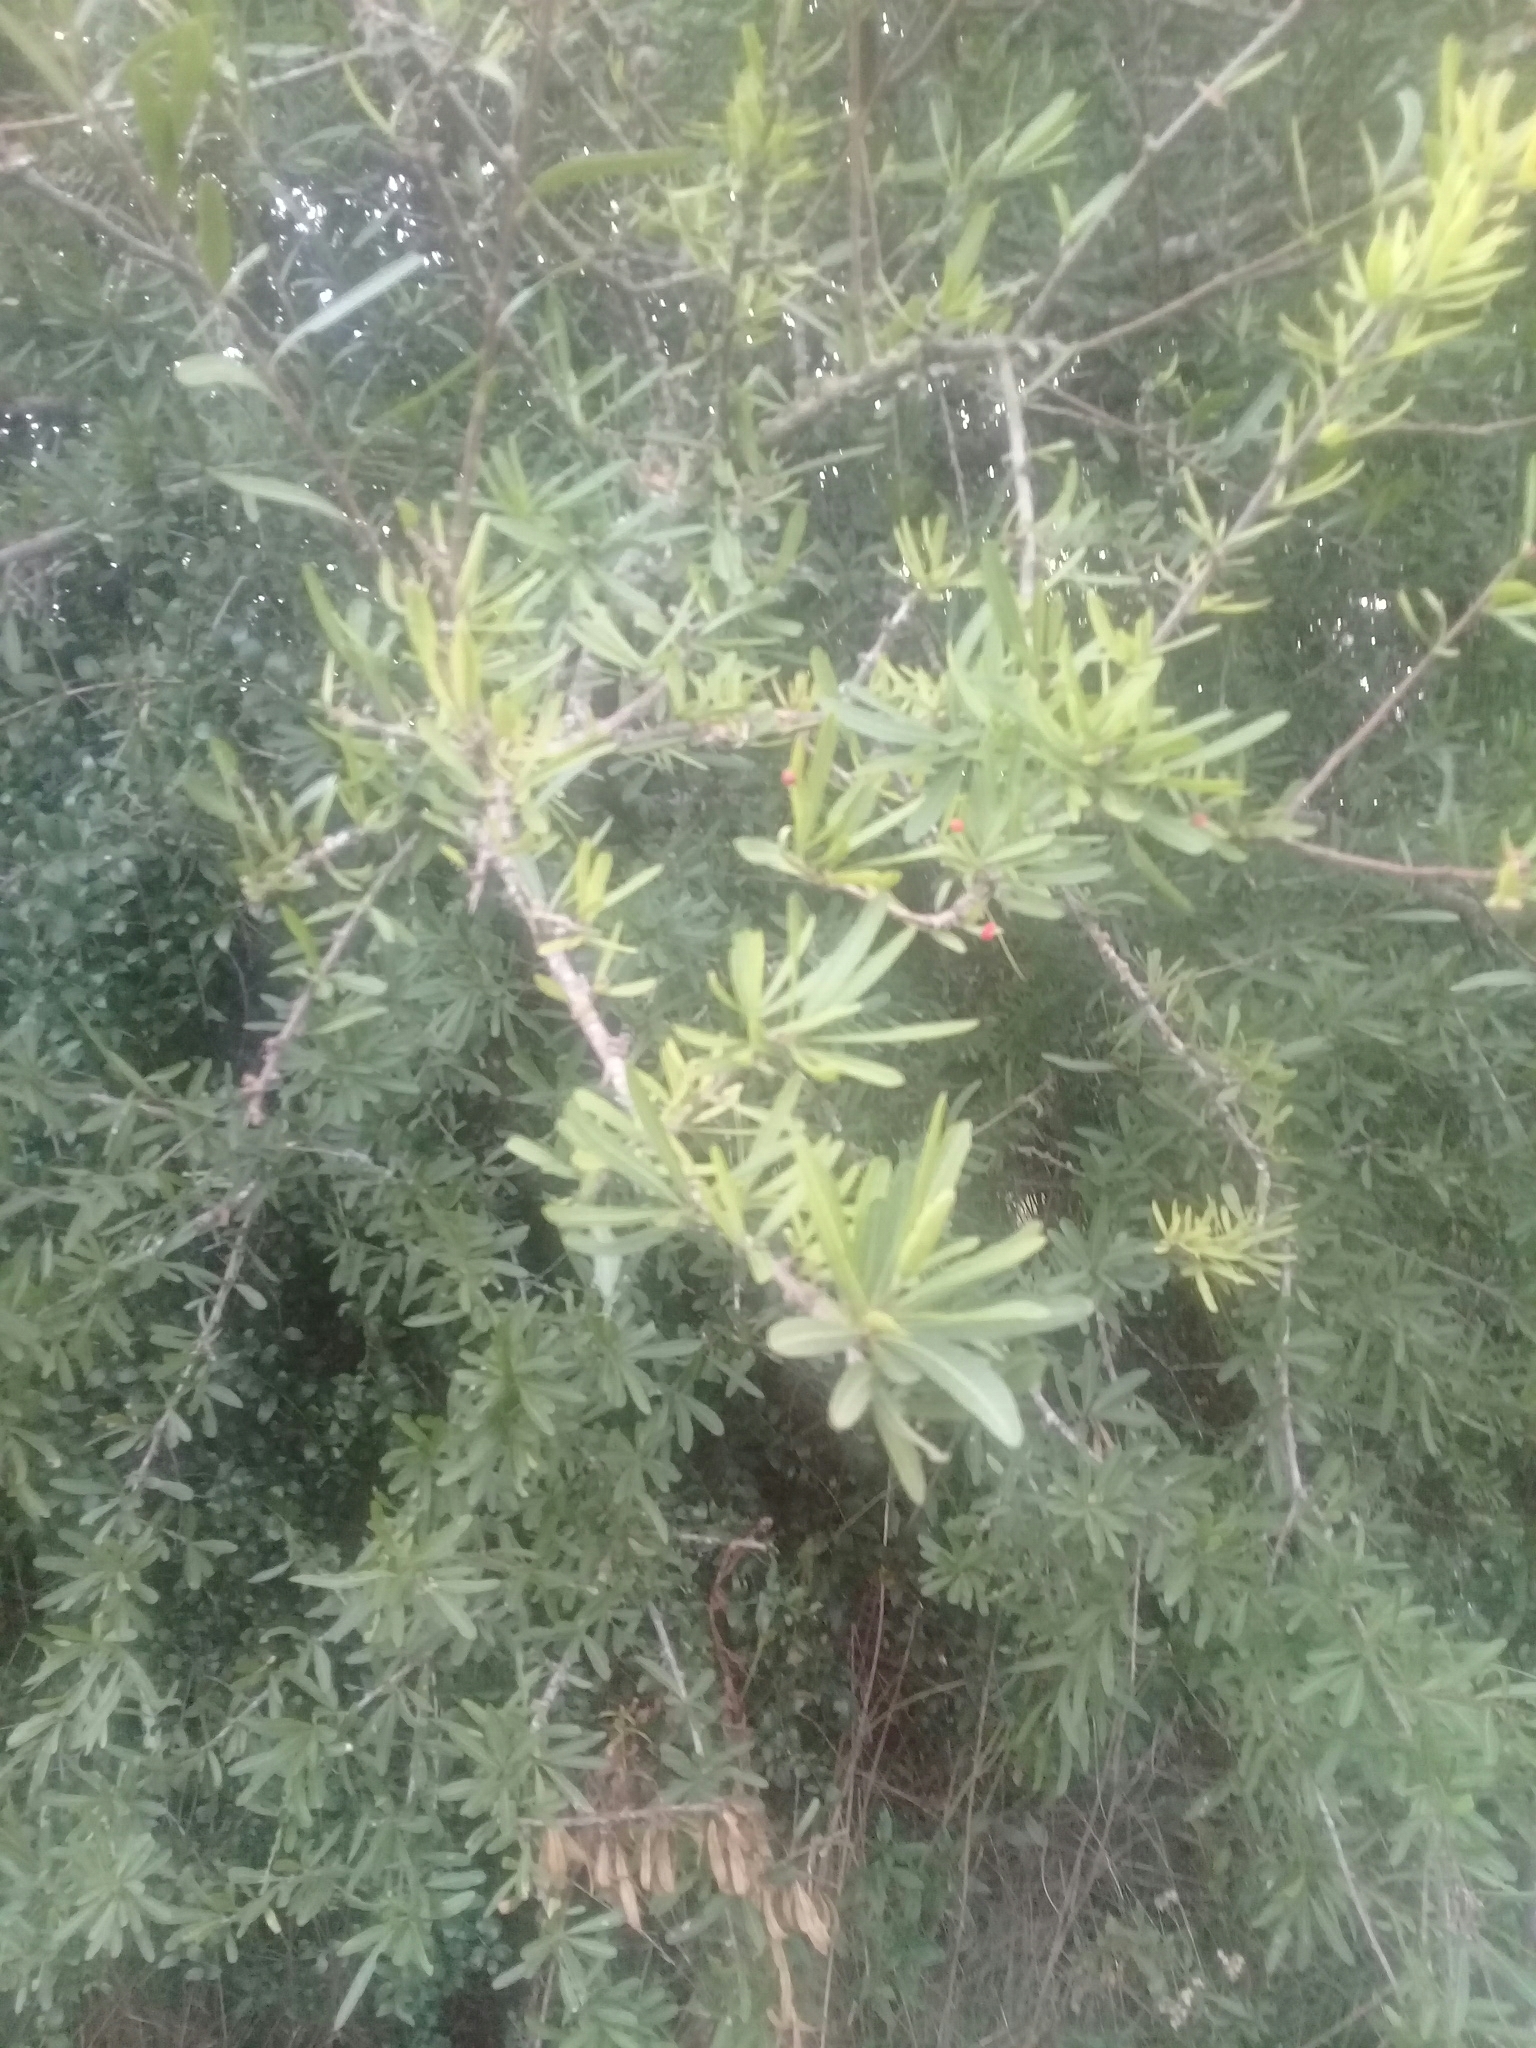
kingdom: Plantae
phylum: Tracheophyta
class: Magnoliopsida
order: Sapindales
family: Anacardiaceae
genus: Schinus
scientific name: Schinus longifolia
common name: Longleaf peppertree
